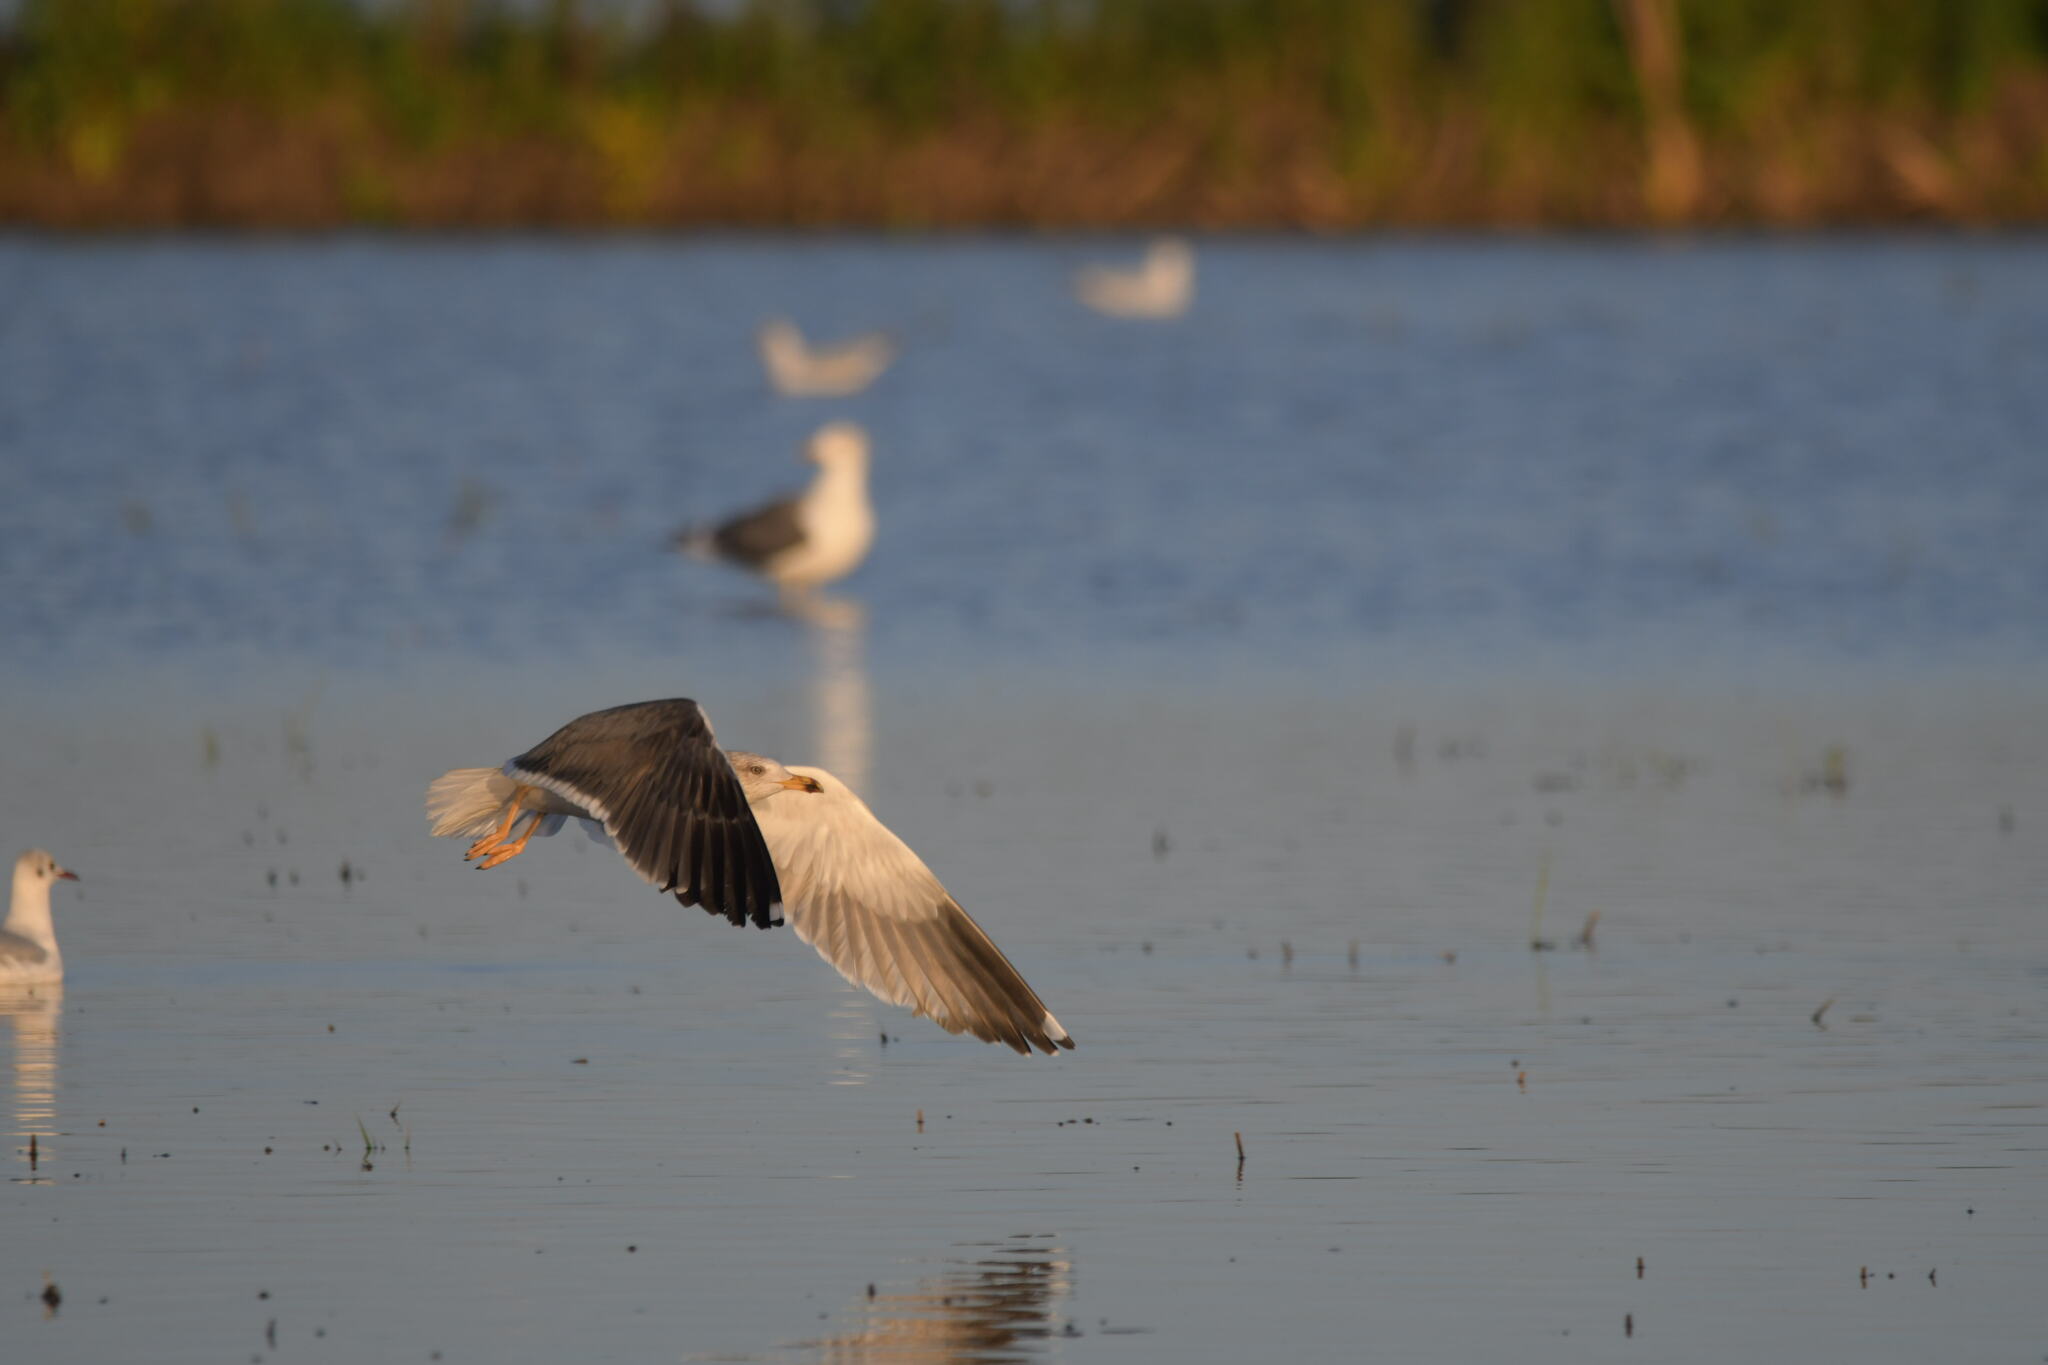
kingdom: Animalia
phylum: Chordata
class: Aves
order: Charadriiformes
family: Laridae
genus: Larus
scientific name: Larus fuscus
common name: Lesser black-backed gull
